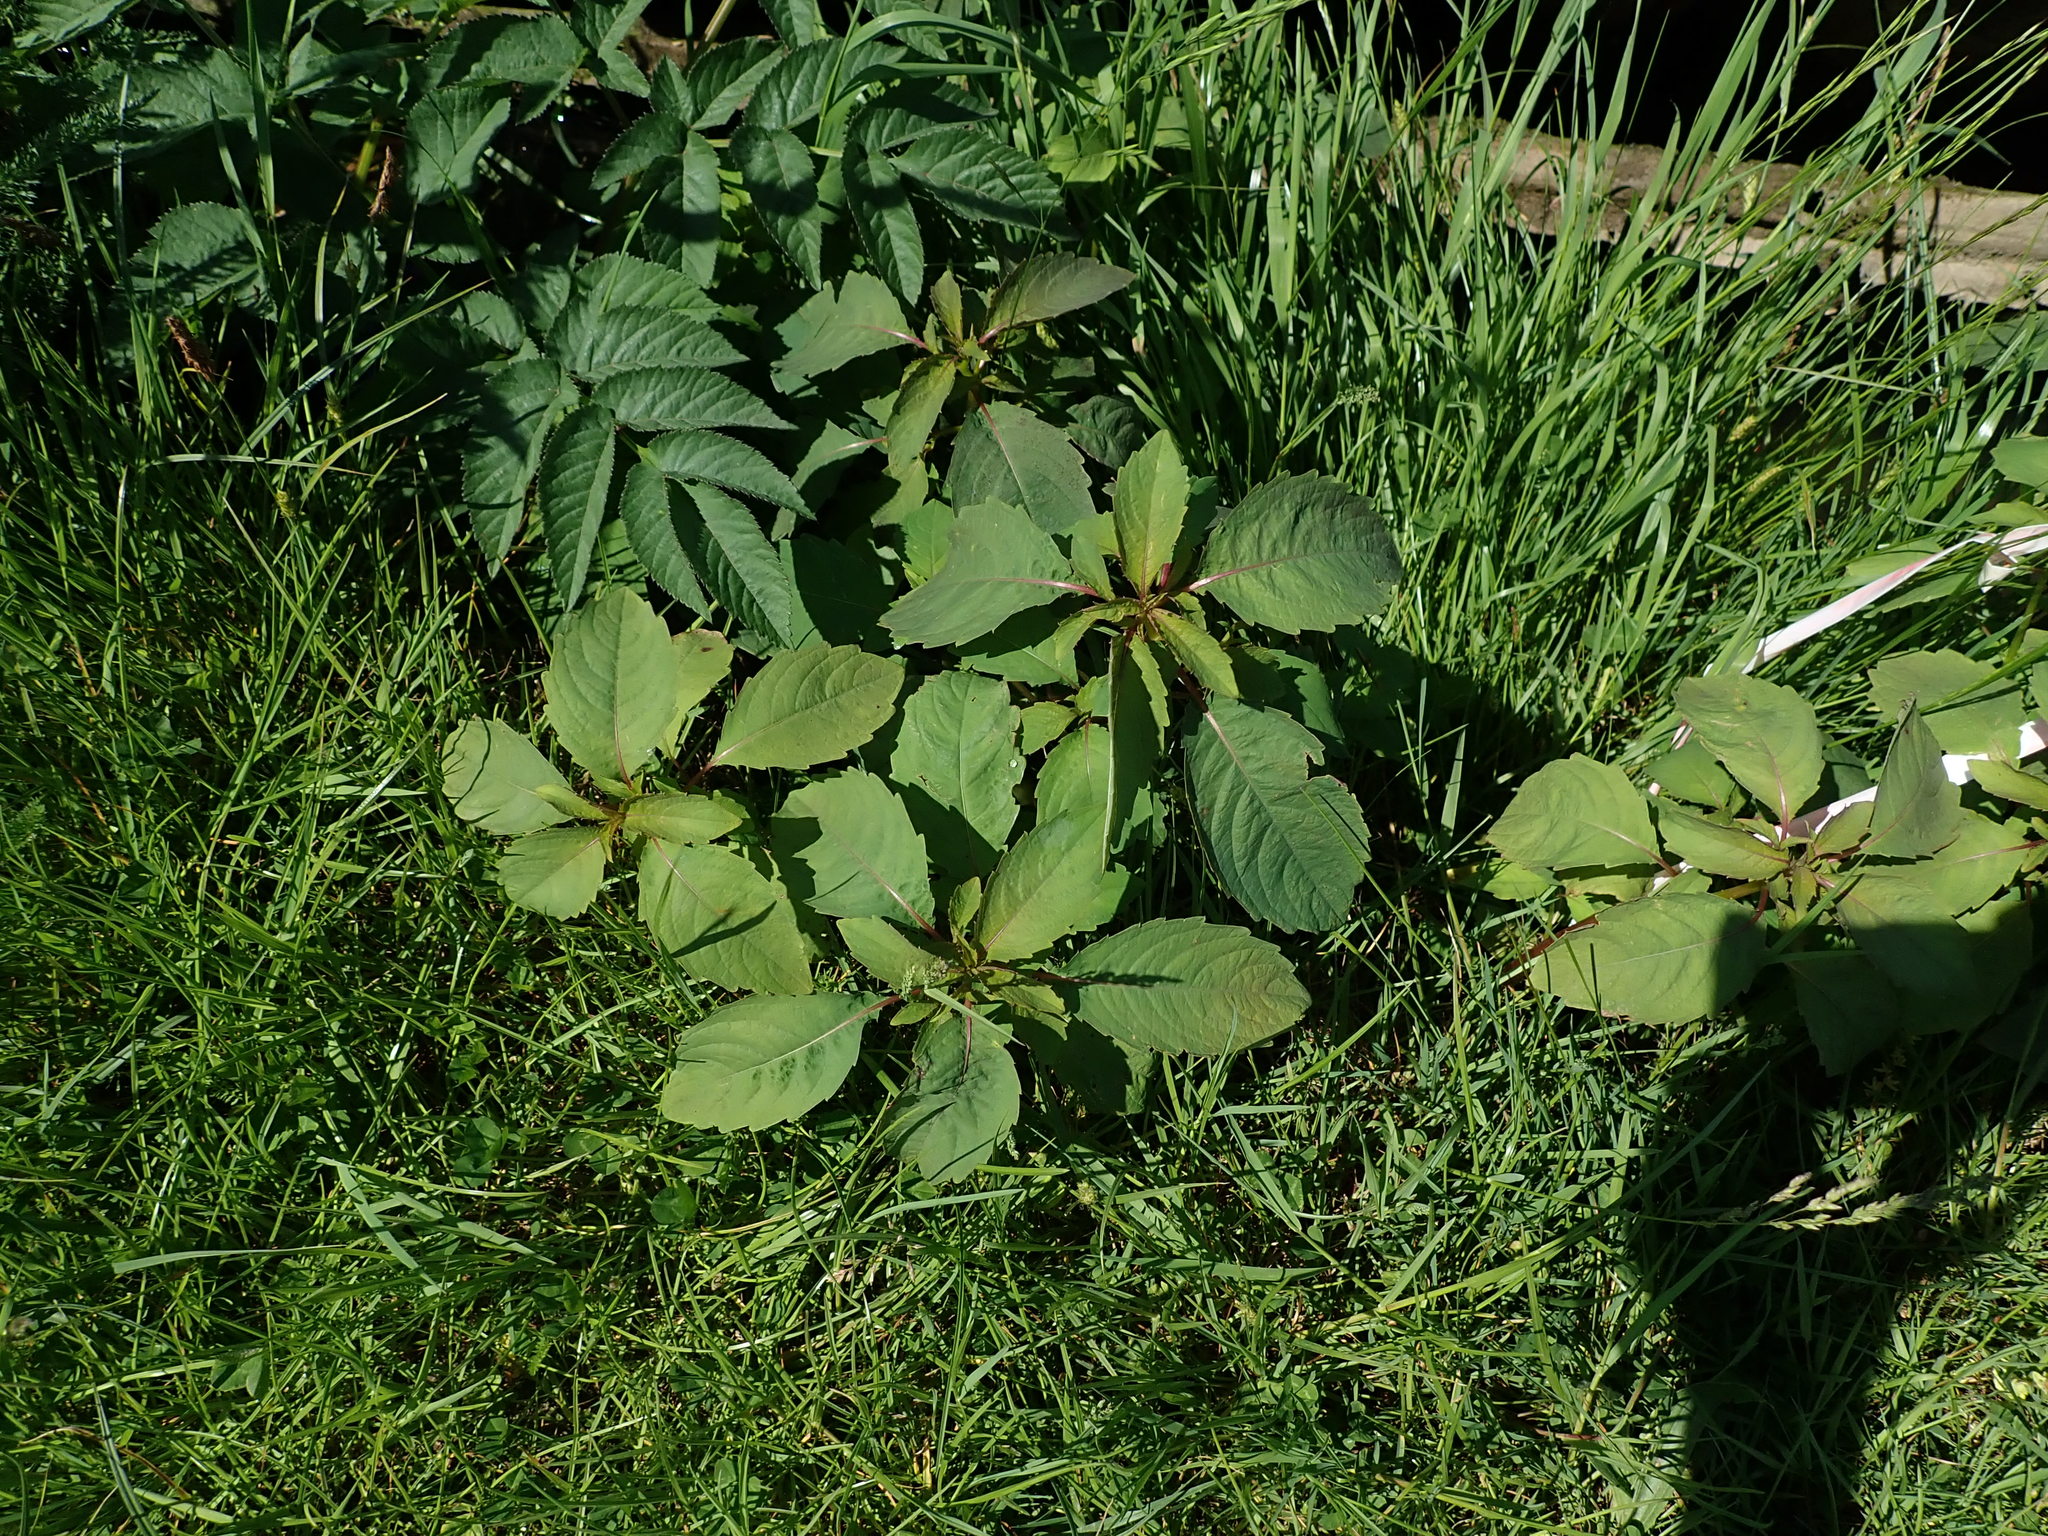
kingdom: Plantae
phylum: Tracheophyta
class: Magnoliopsida
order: Ericales
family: Balsaminaceae
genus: Impatiens
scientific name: Impatiens capensis
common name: Orange balsam
